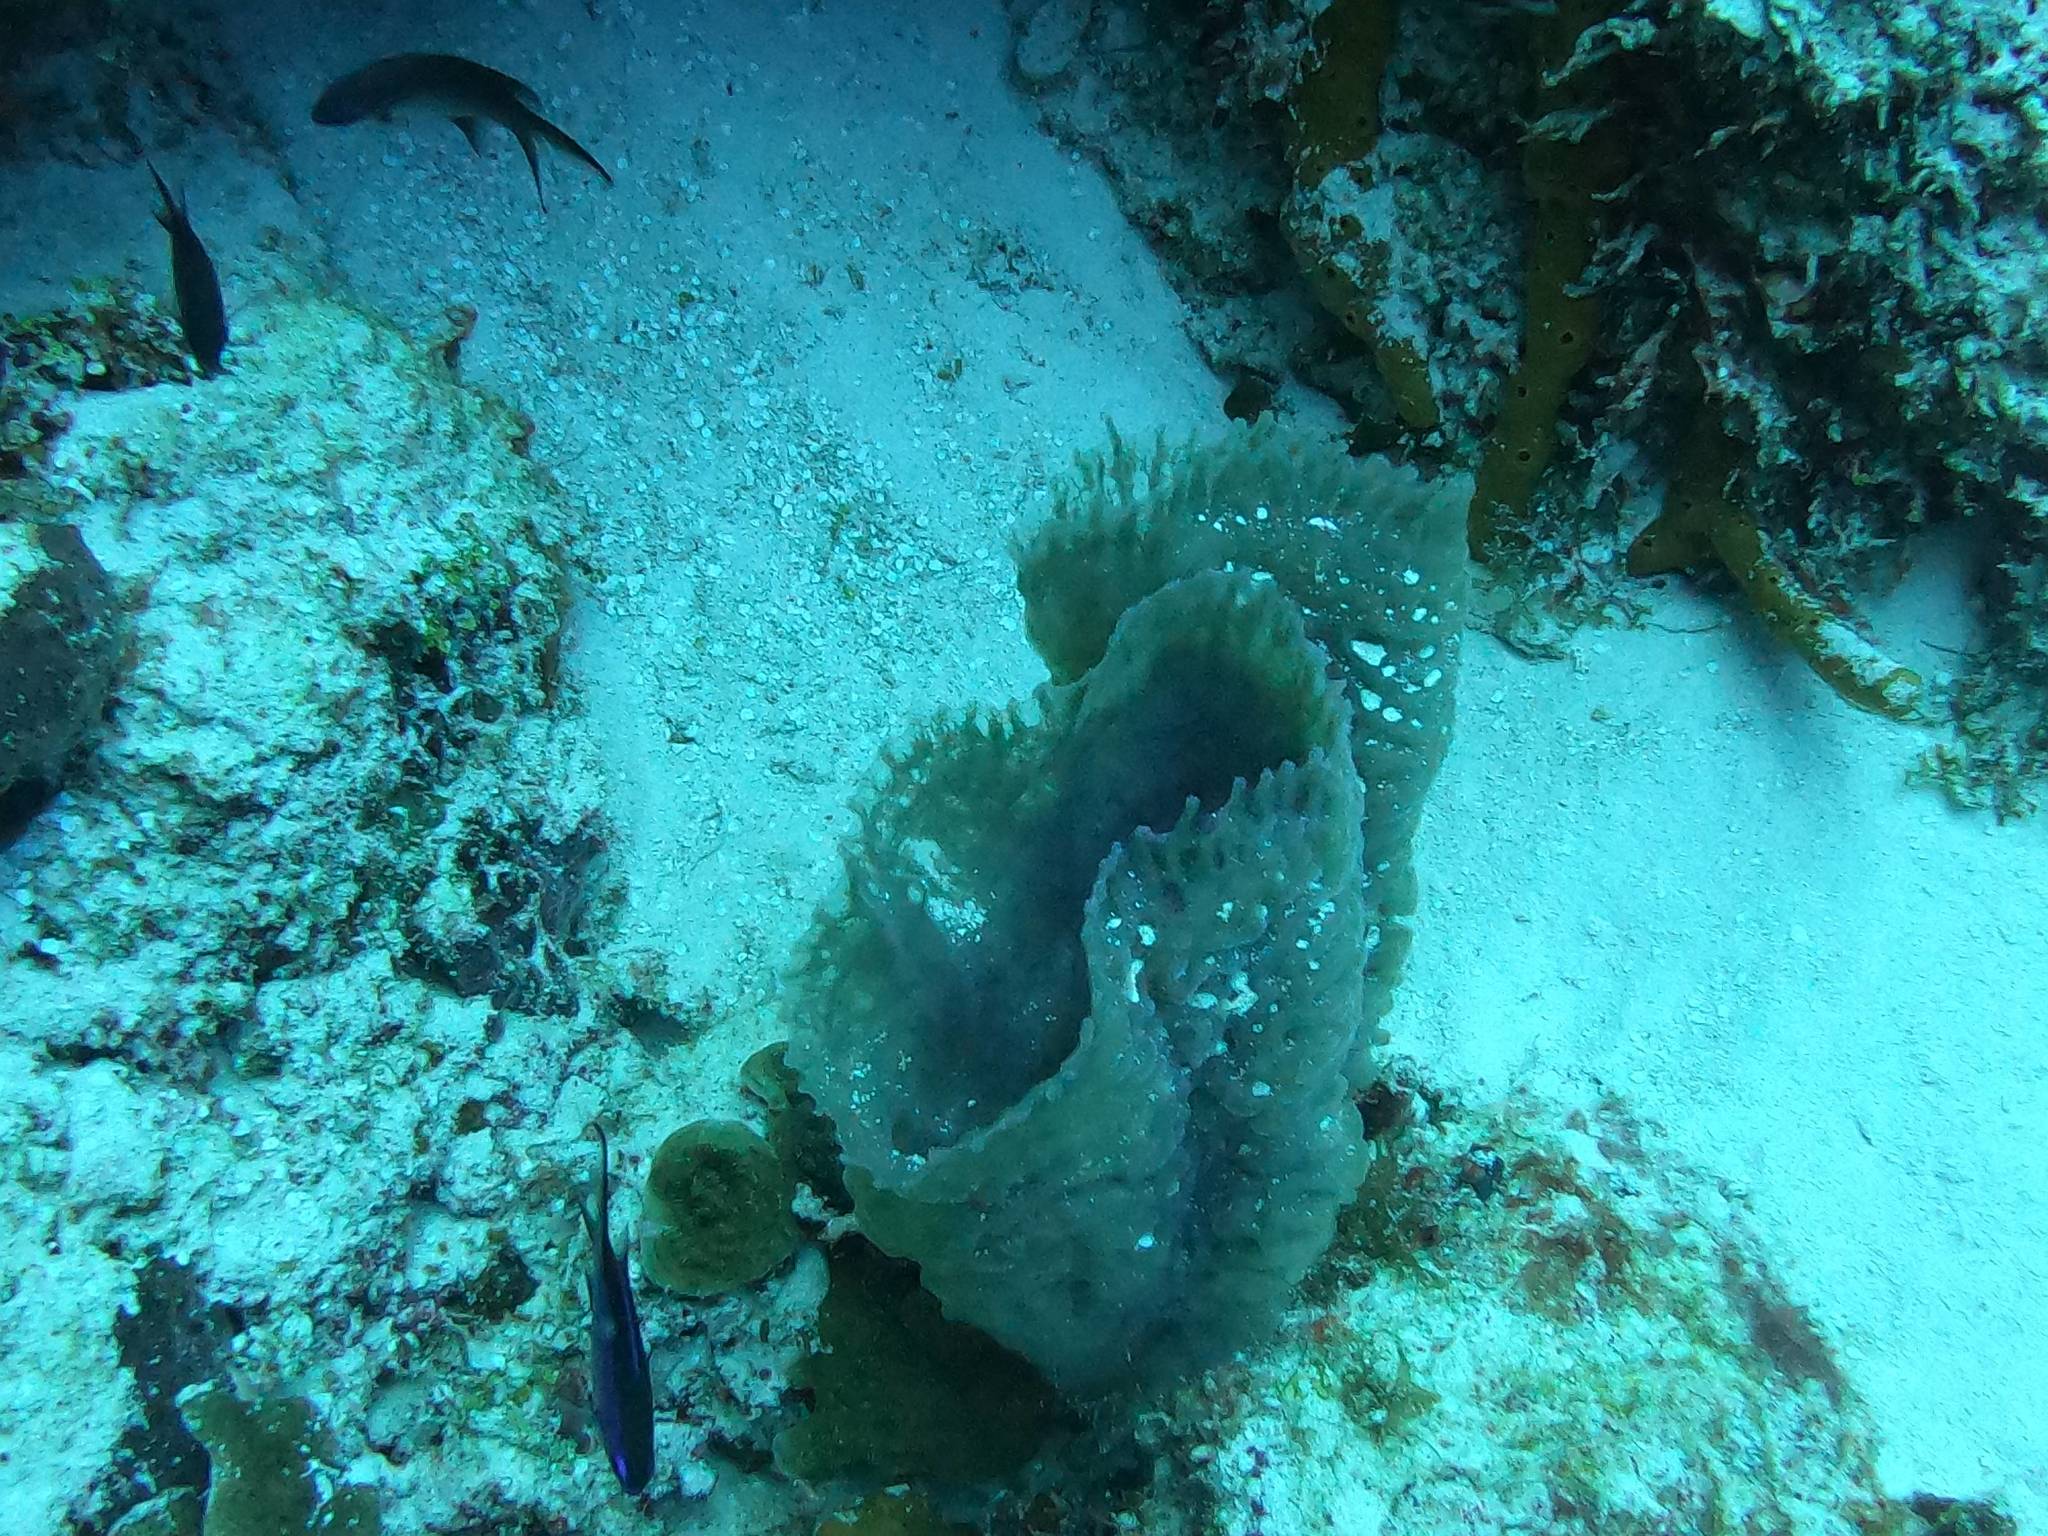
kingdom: Animalia
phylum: Porifera
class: Demospongiae
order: Haplosclerida
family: Callyspongiidae
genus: Callyspongia
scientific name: Callyspongia plicifera
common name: Azure vase sponge
